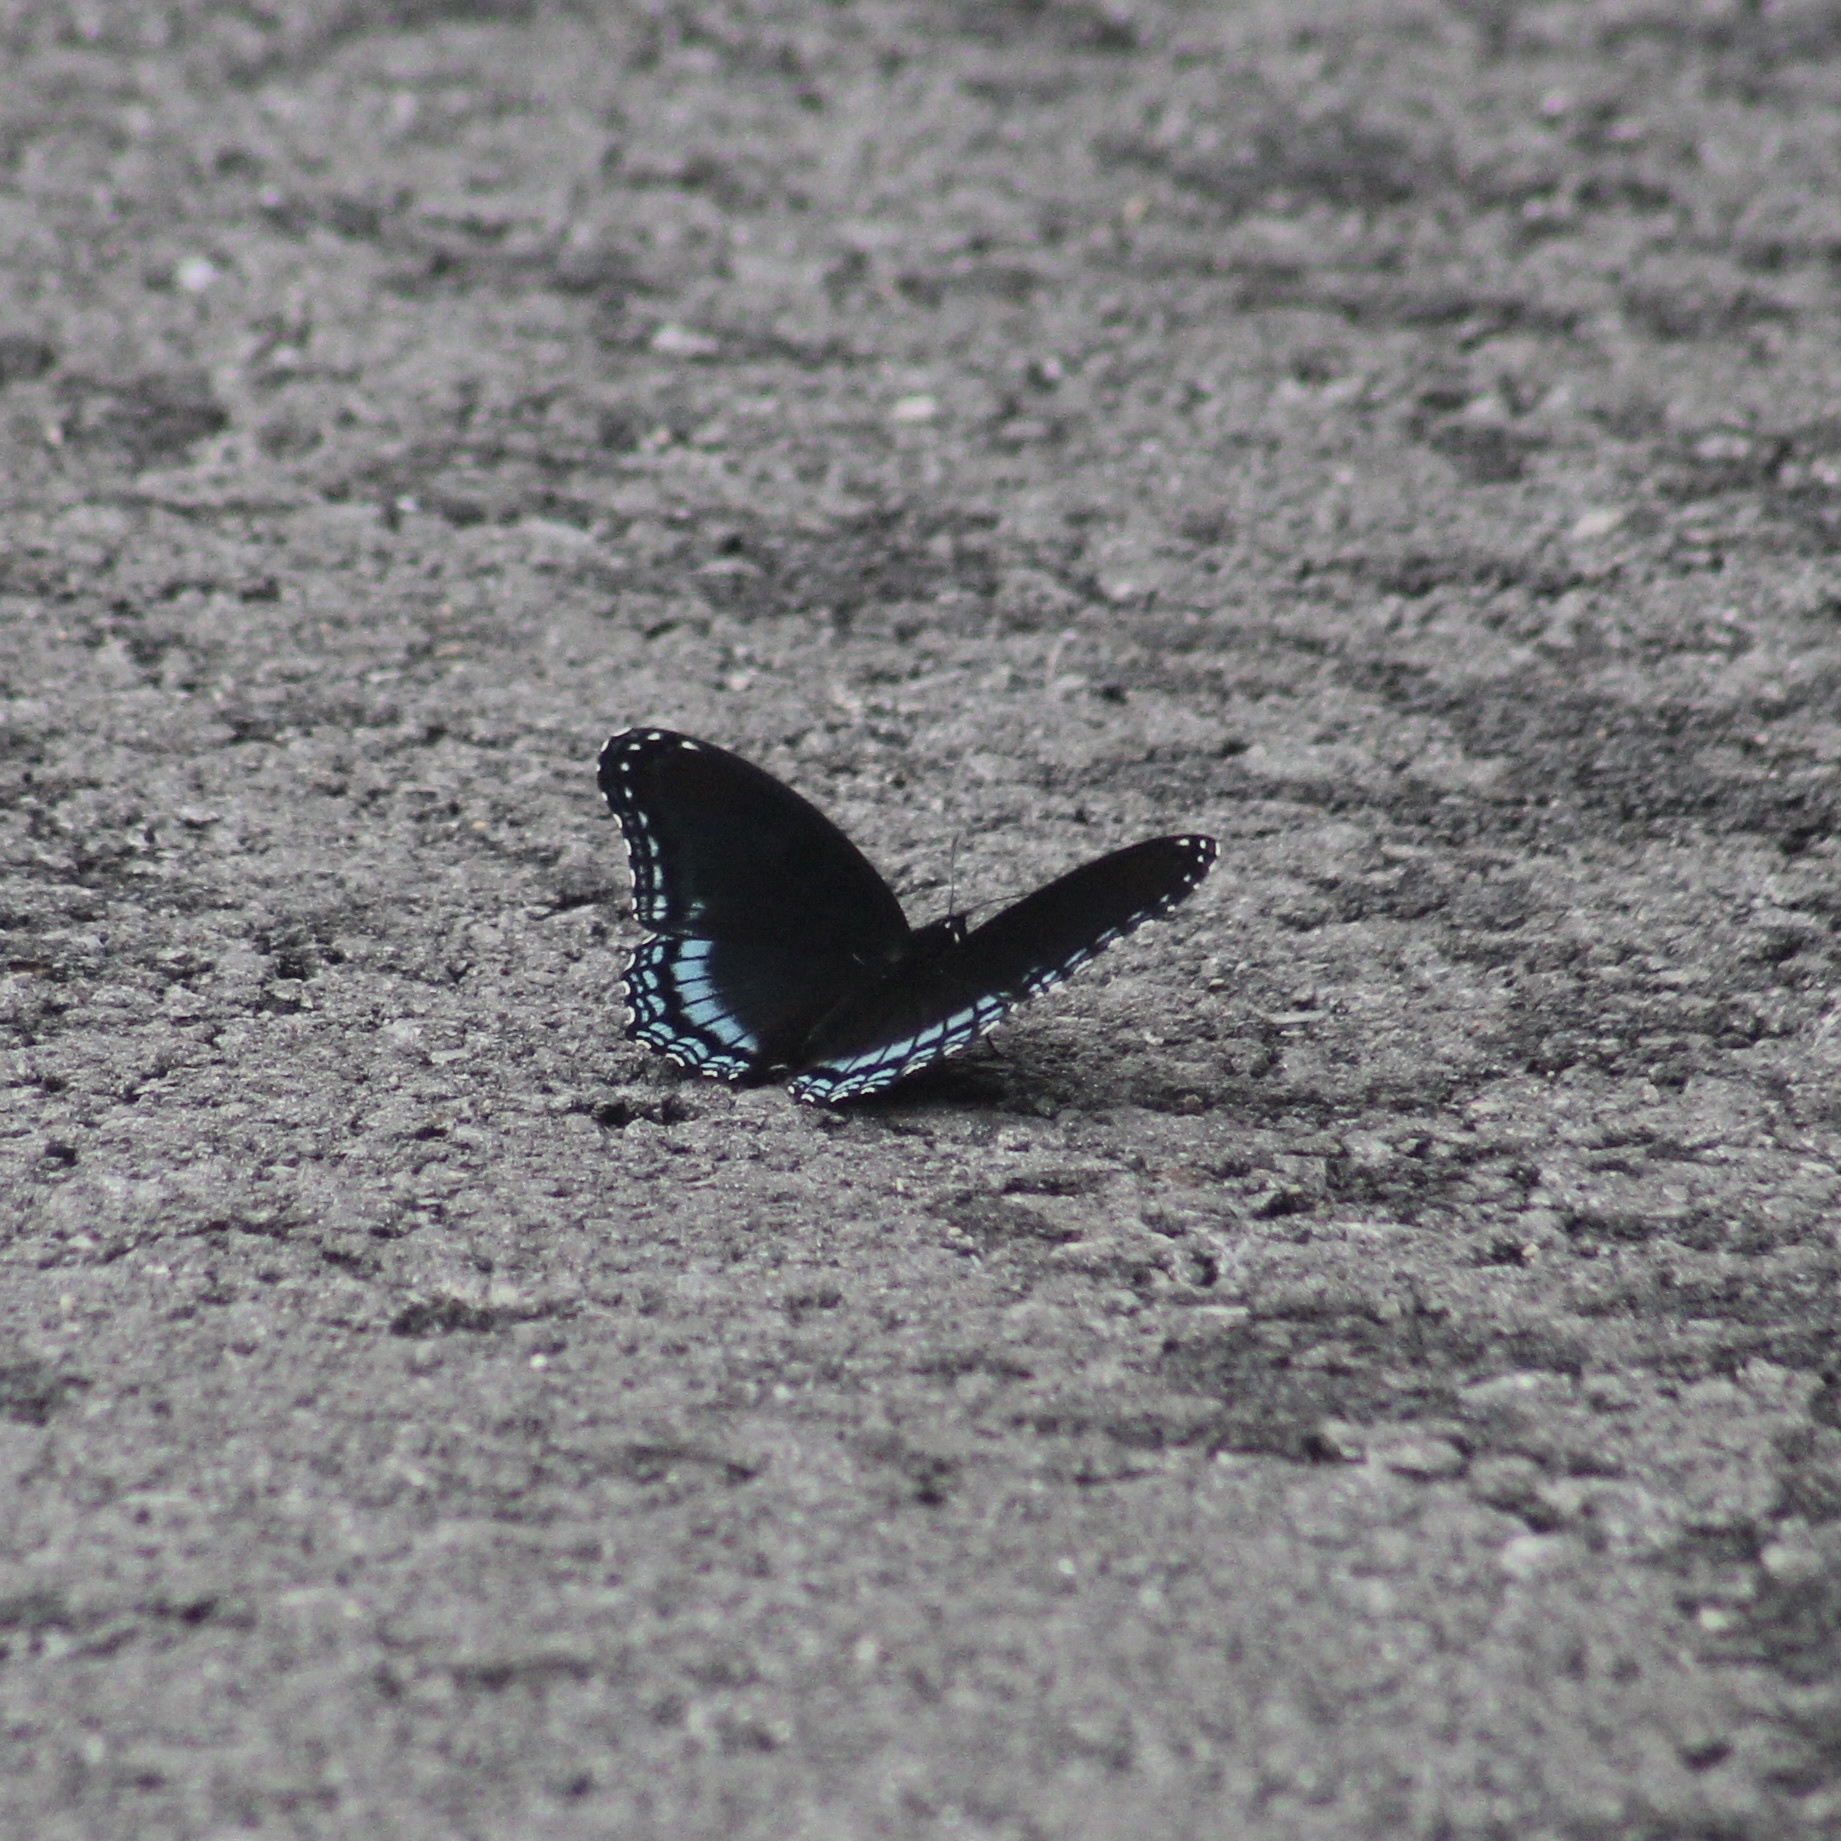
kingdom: Animalia
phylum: Arthropoda
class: Insecta
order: Lepidoptera
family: Nymphalidae
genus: Limenitis
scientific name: Limenitis astyanax
